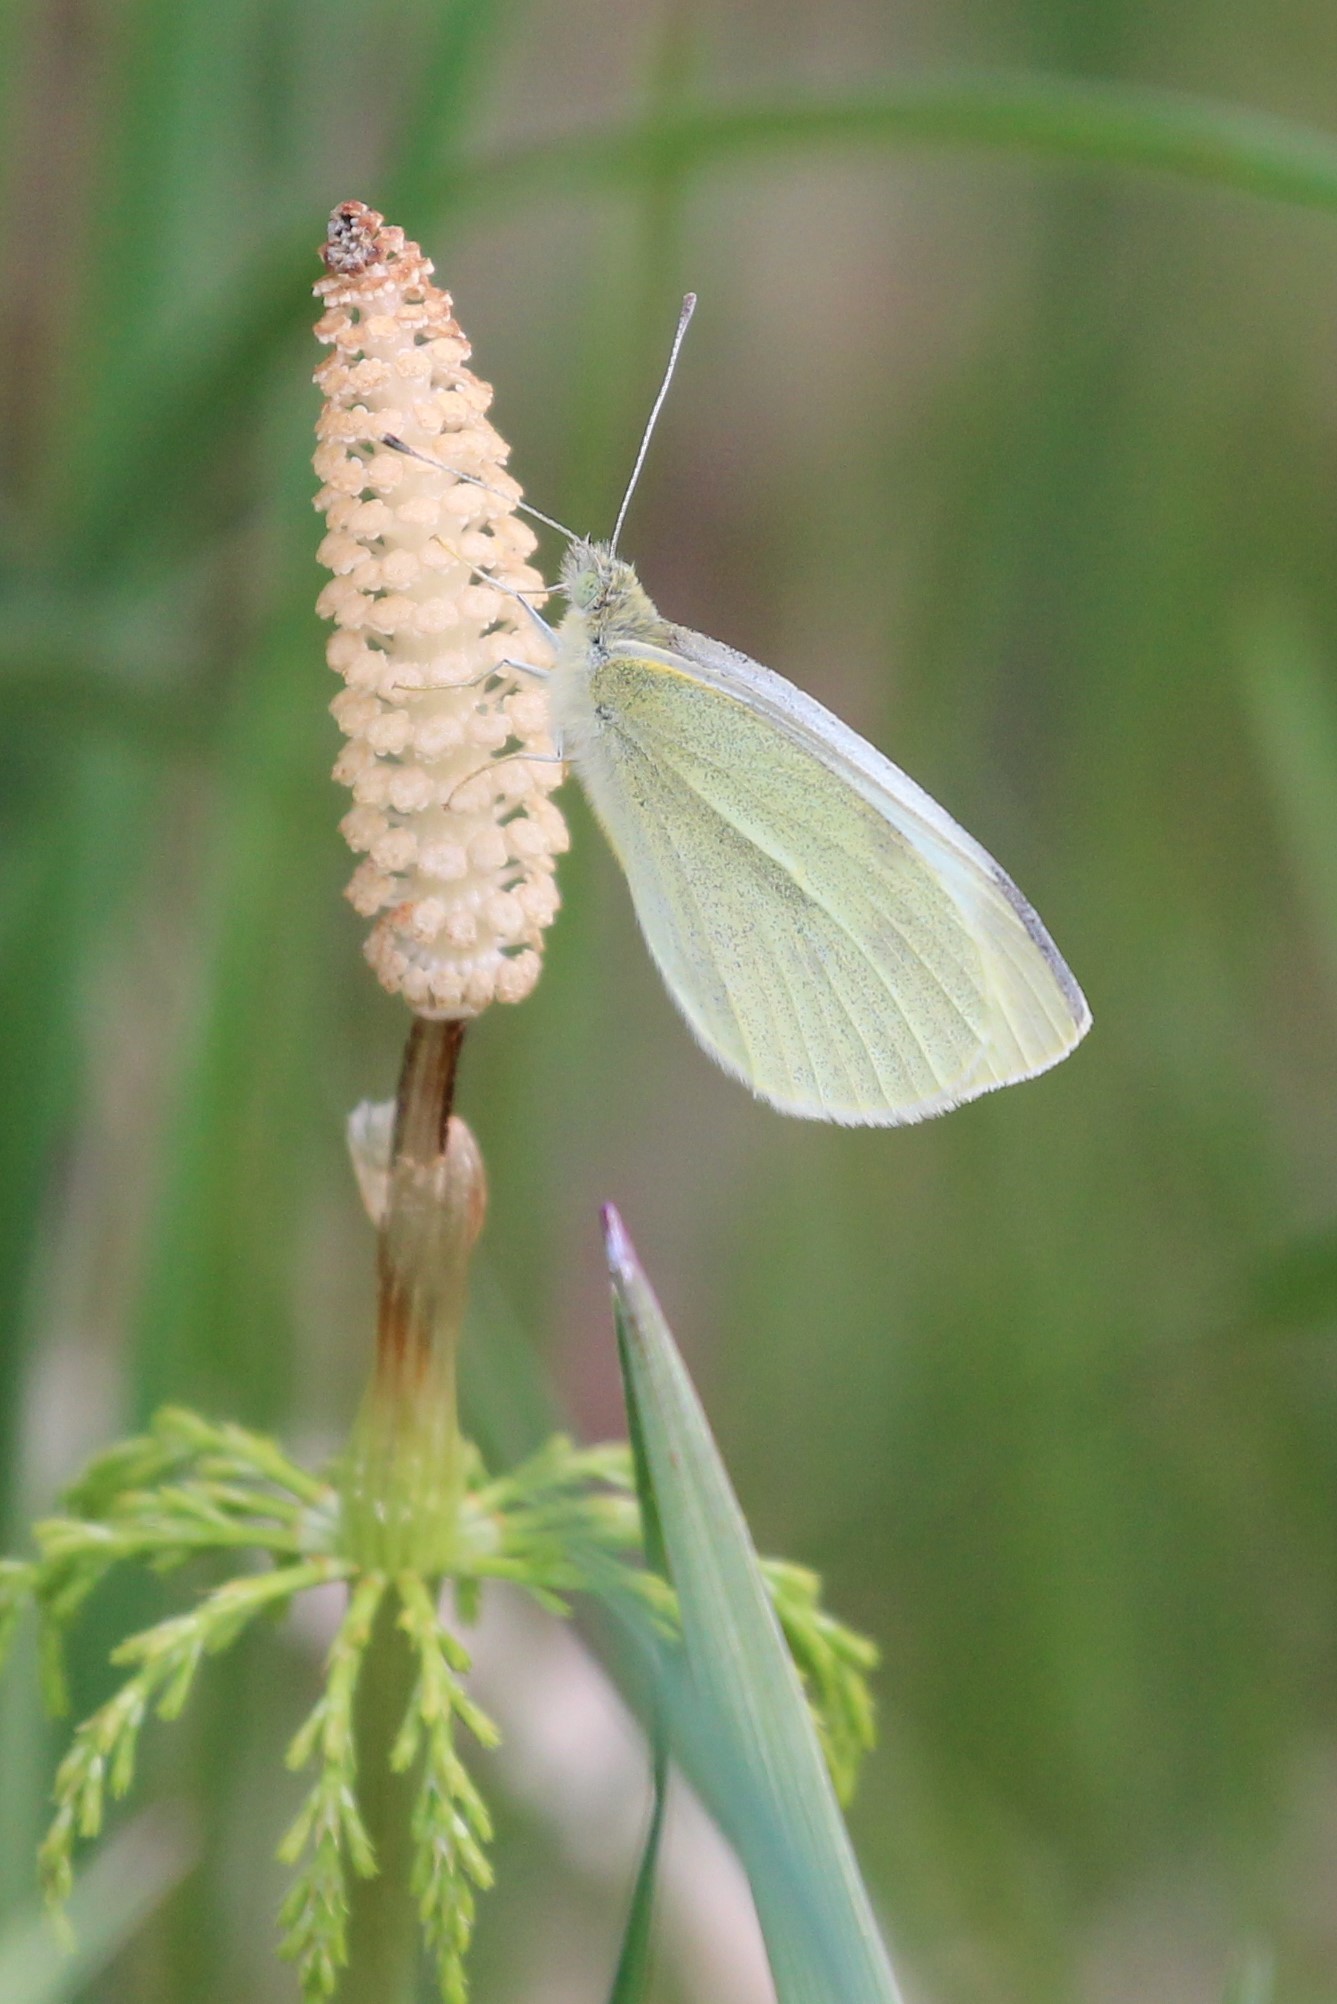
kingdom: Animalia
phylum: Arthropoda
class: Insecta
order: Lepidoptera
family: Pieridae
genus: Pieris
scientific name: Pieris rapae
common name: Small white
